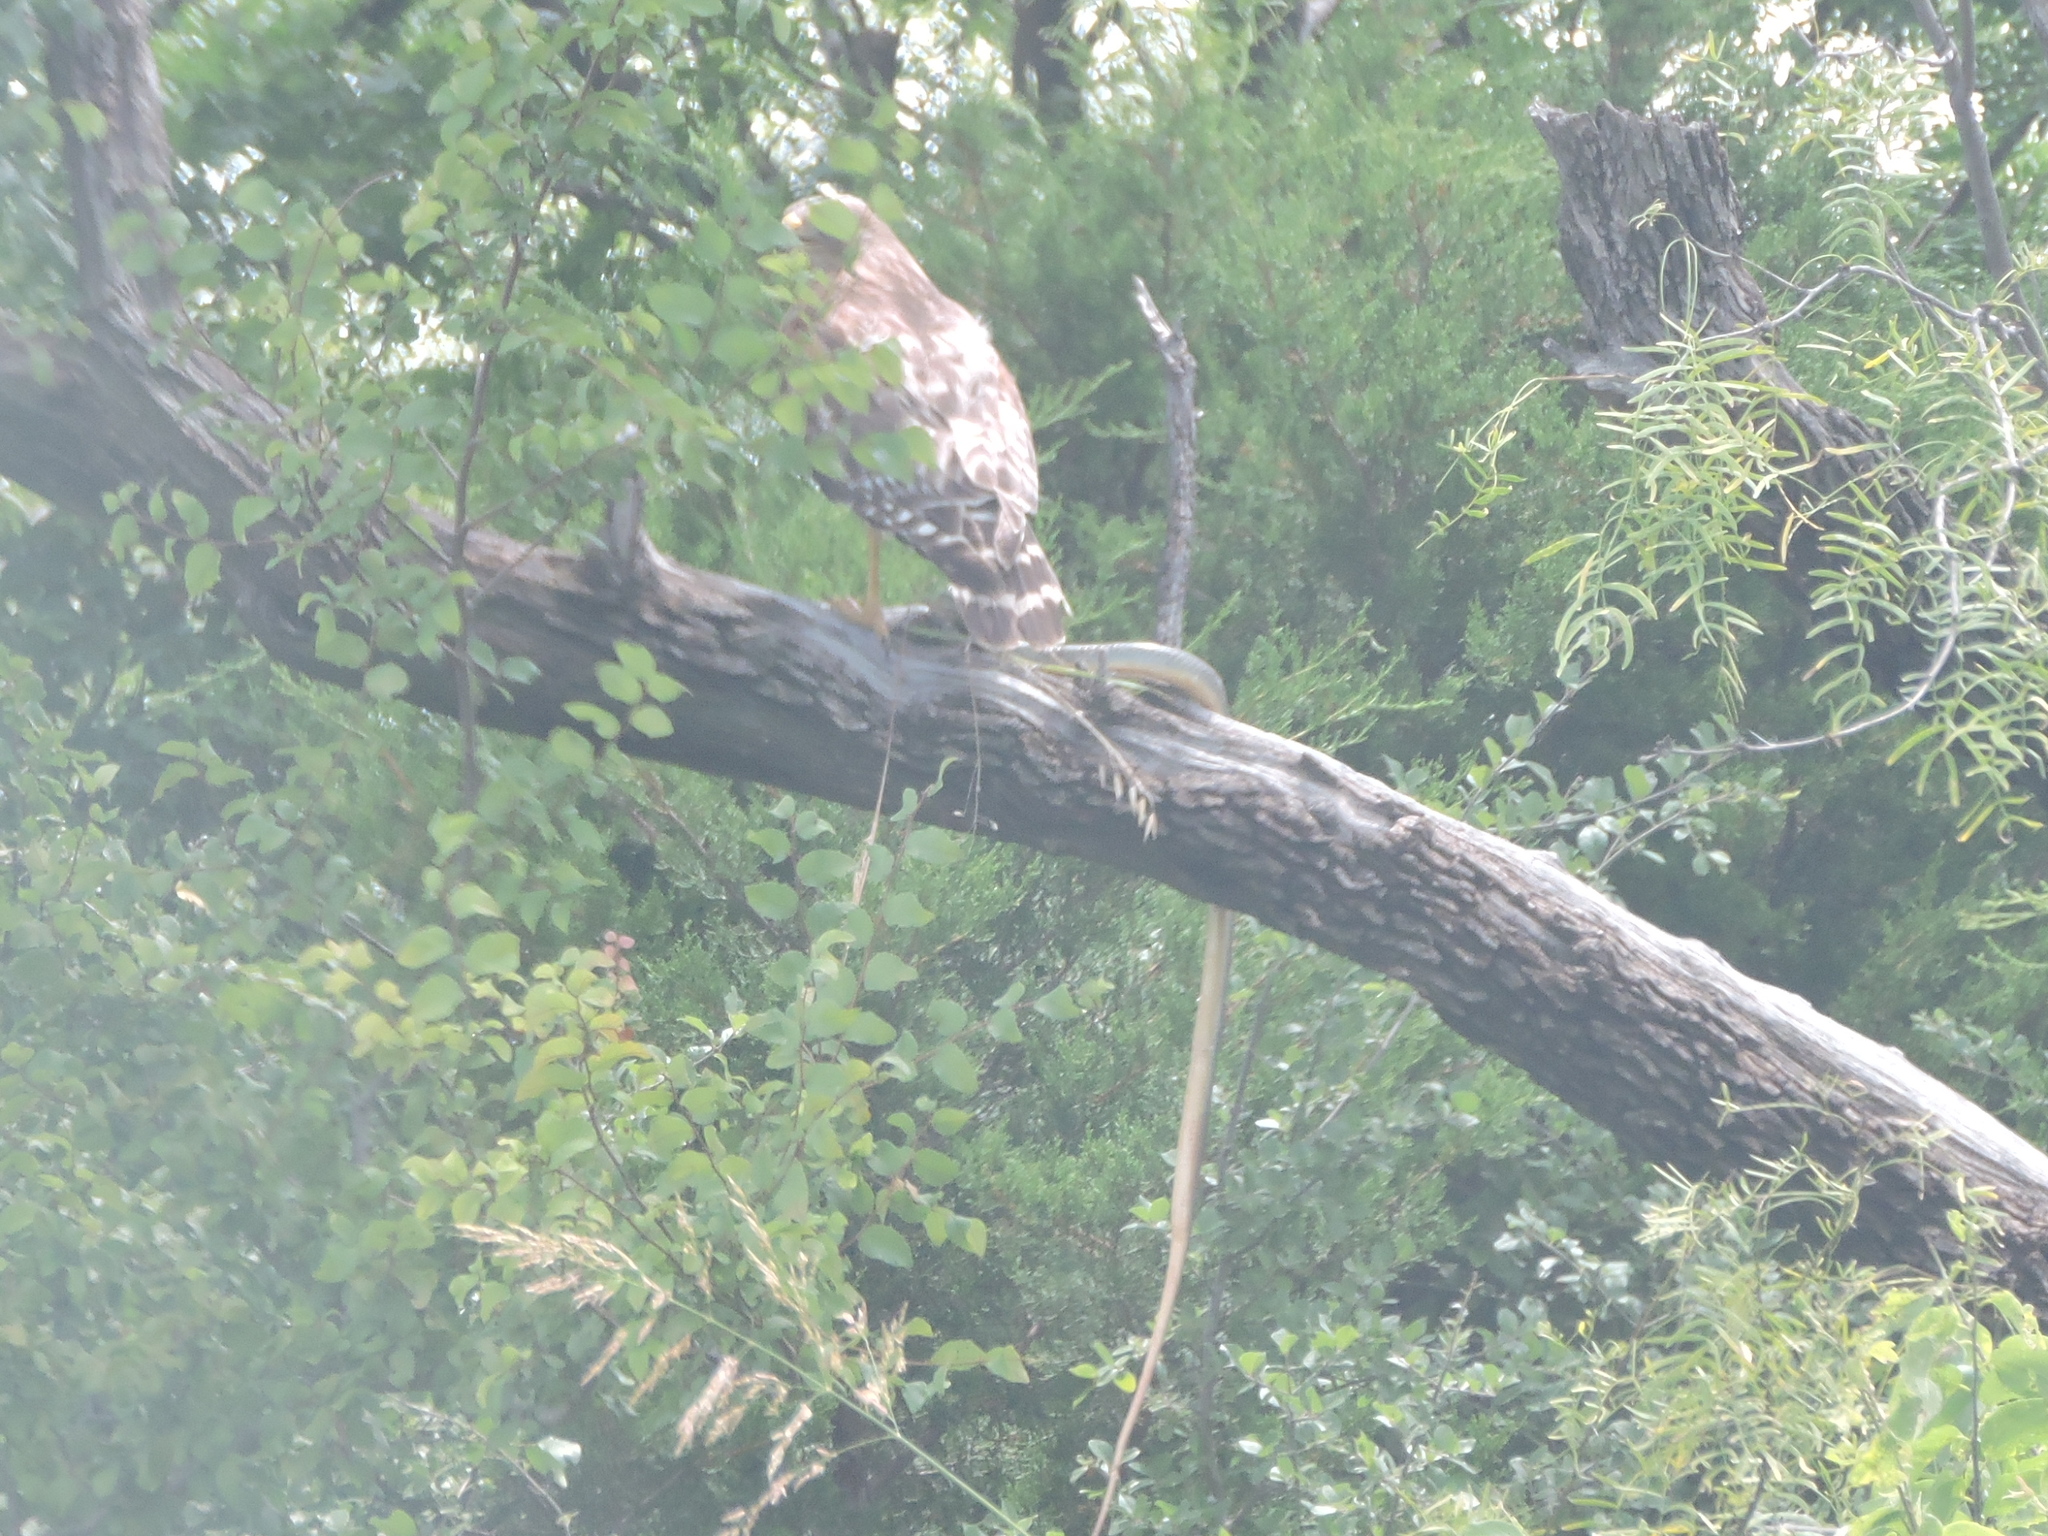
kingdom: Animalia
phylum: Chordata
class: Aves
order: Accipitriformes
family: Accipitridae
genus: Buteo
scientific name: Buteo lineatus
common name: Red-shouldered hawk
